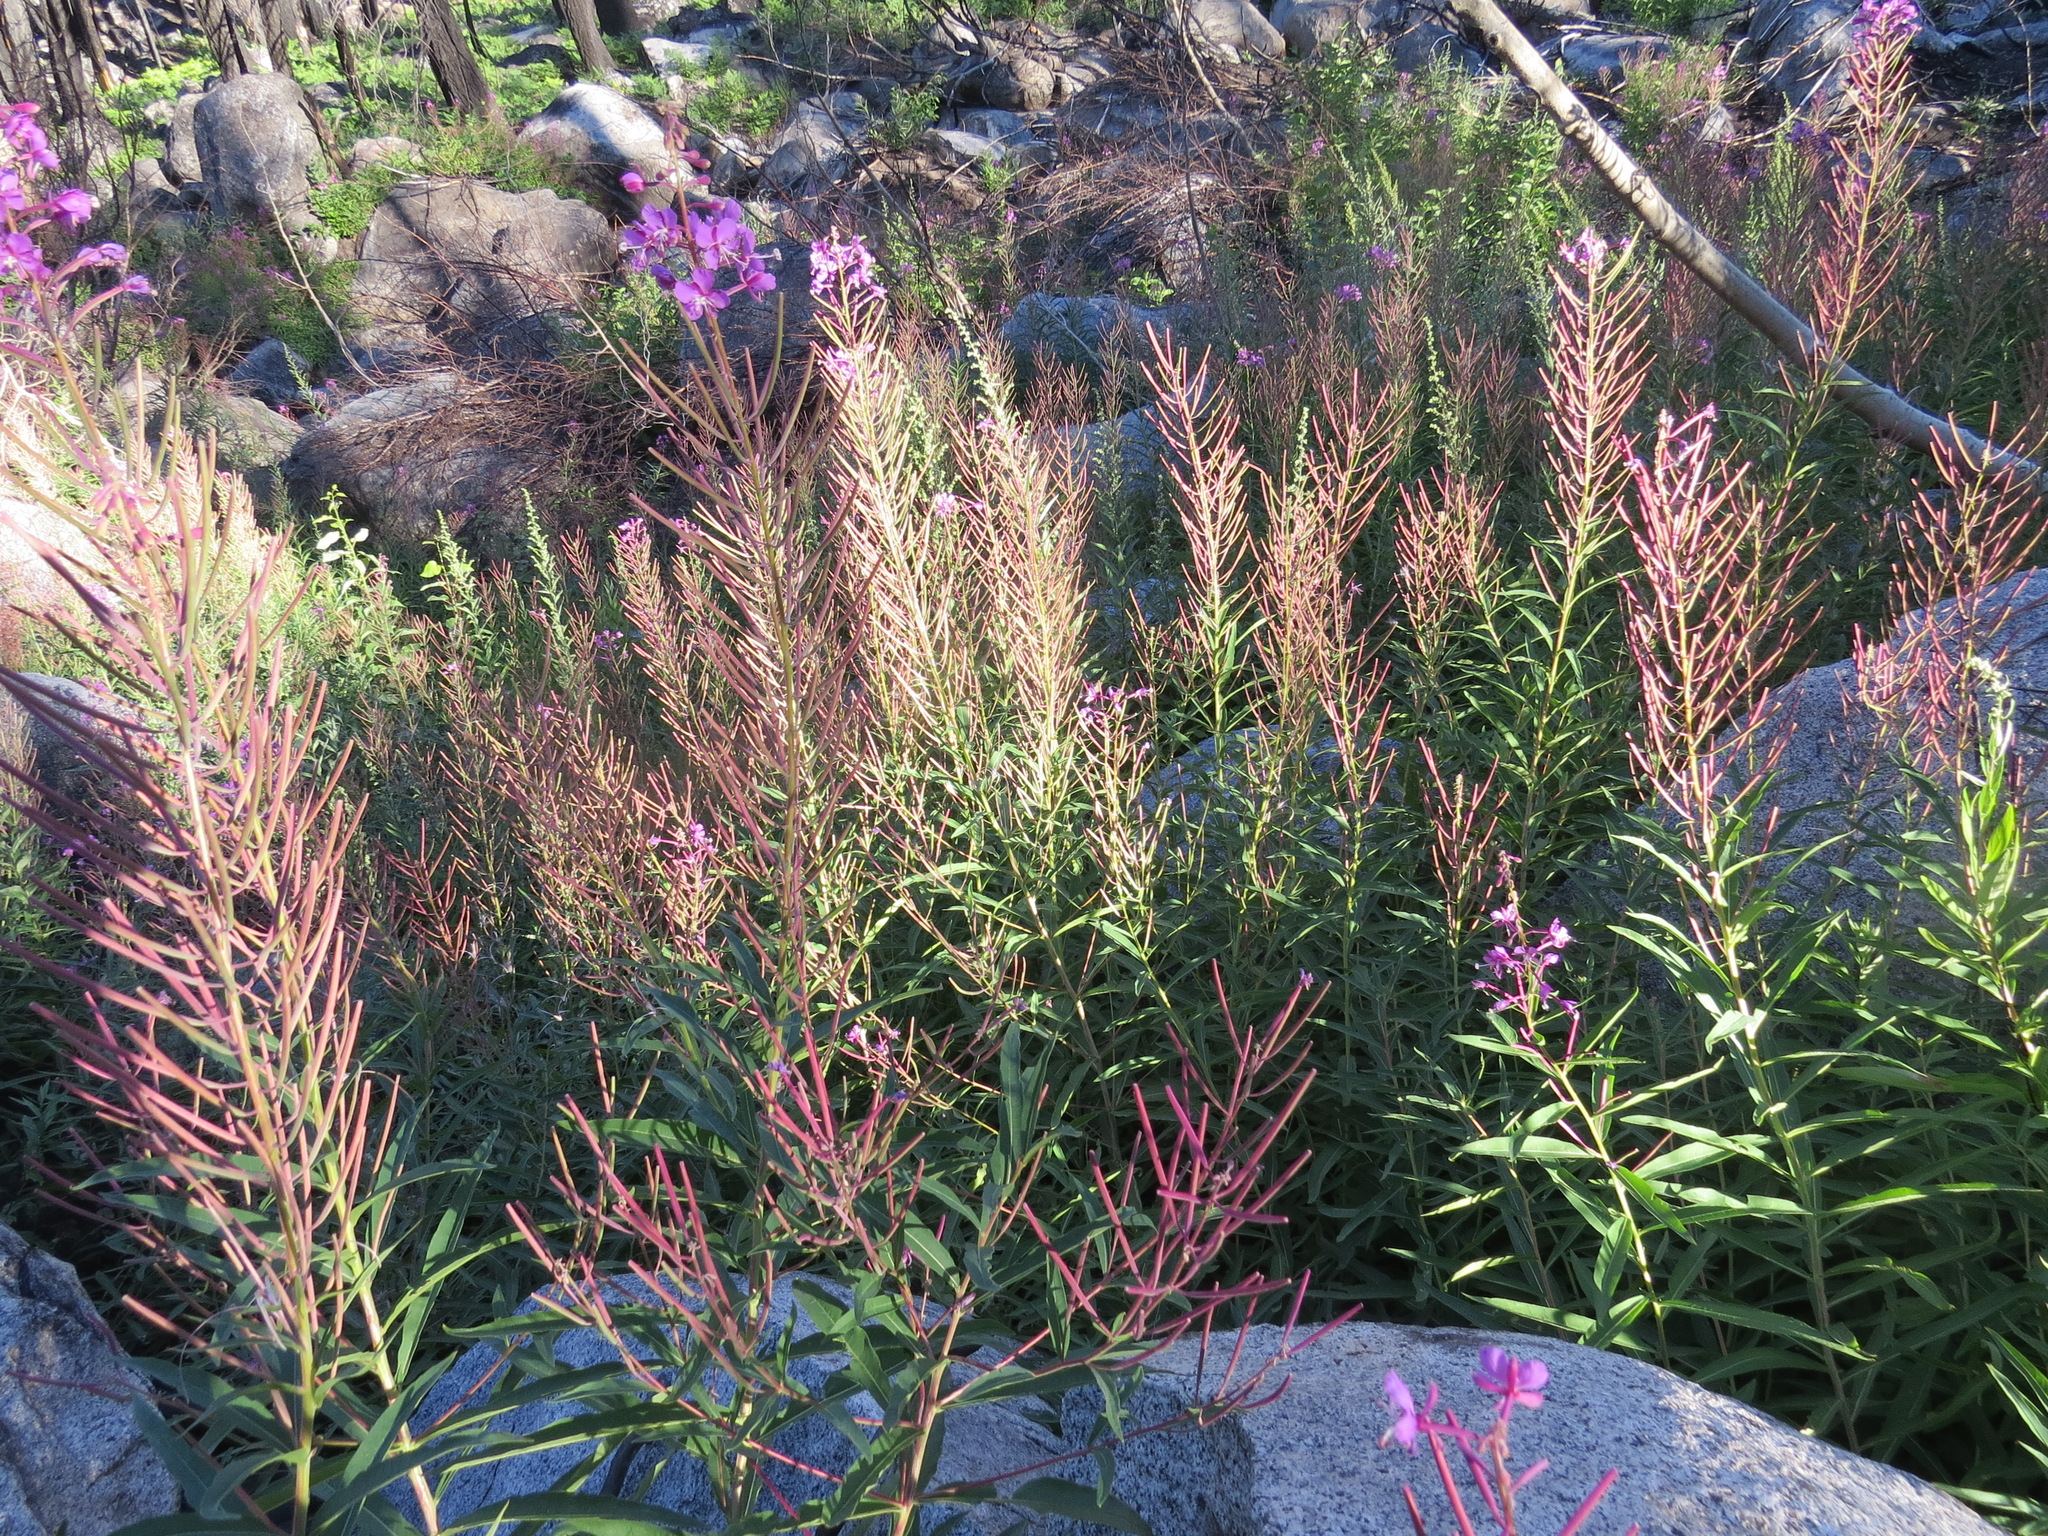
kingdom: Plantae
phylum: Tracheophyta
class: Magnoliopsida
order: Myrtales
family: Onagraceae
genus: Chamaenerion
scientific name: Chamaenerion angustifolium
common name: Fireweed
